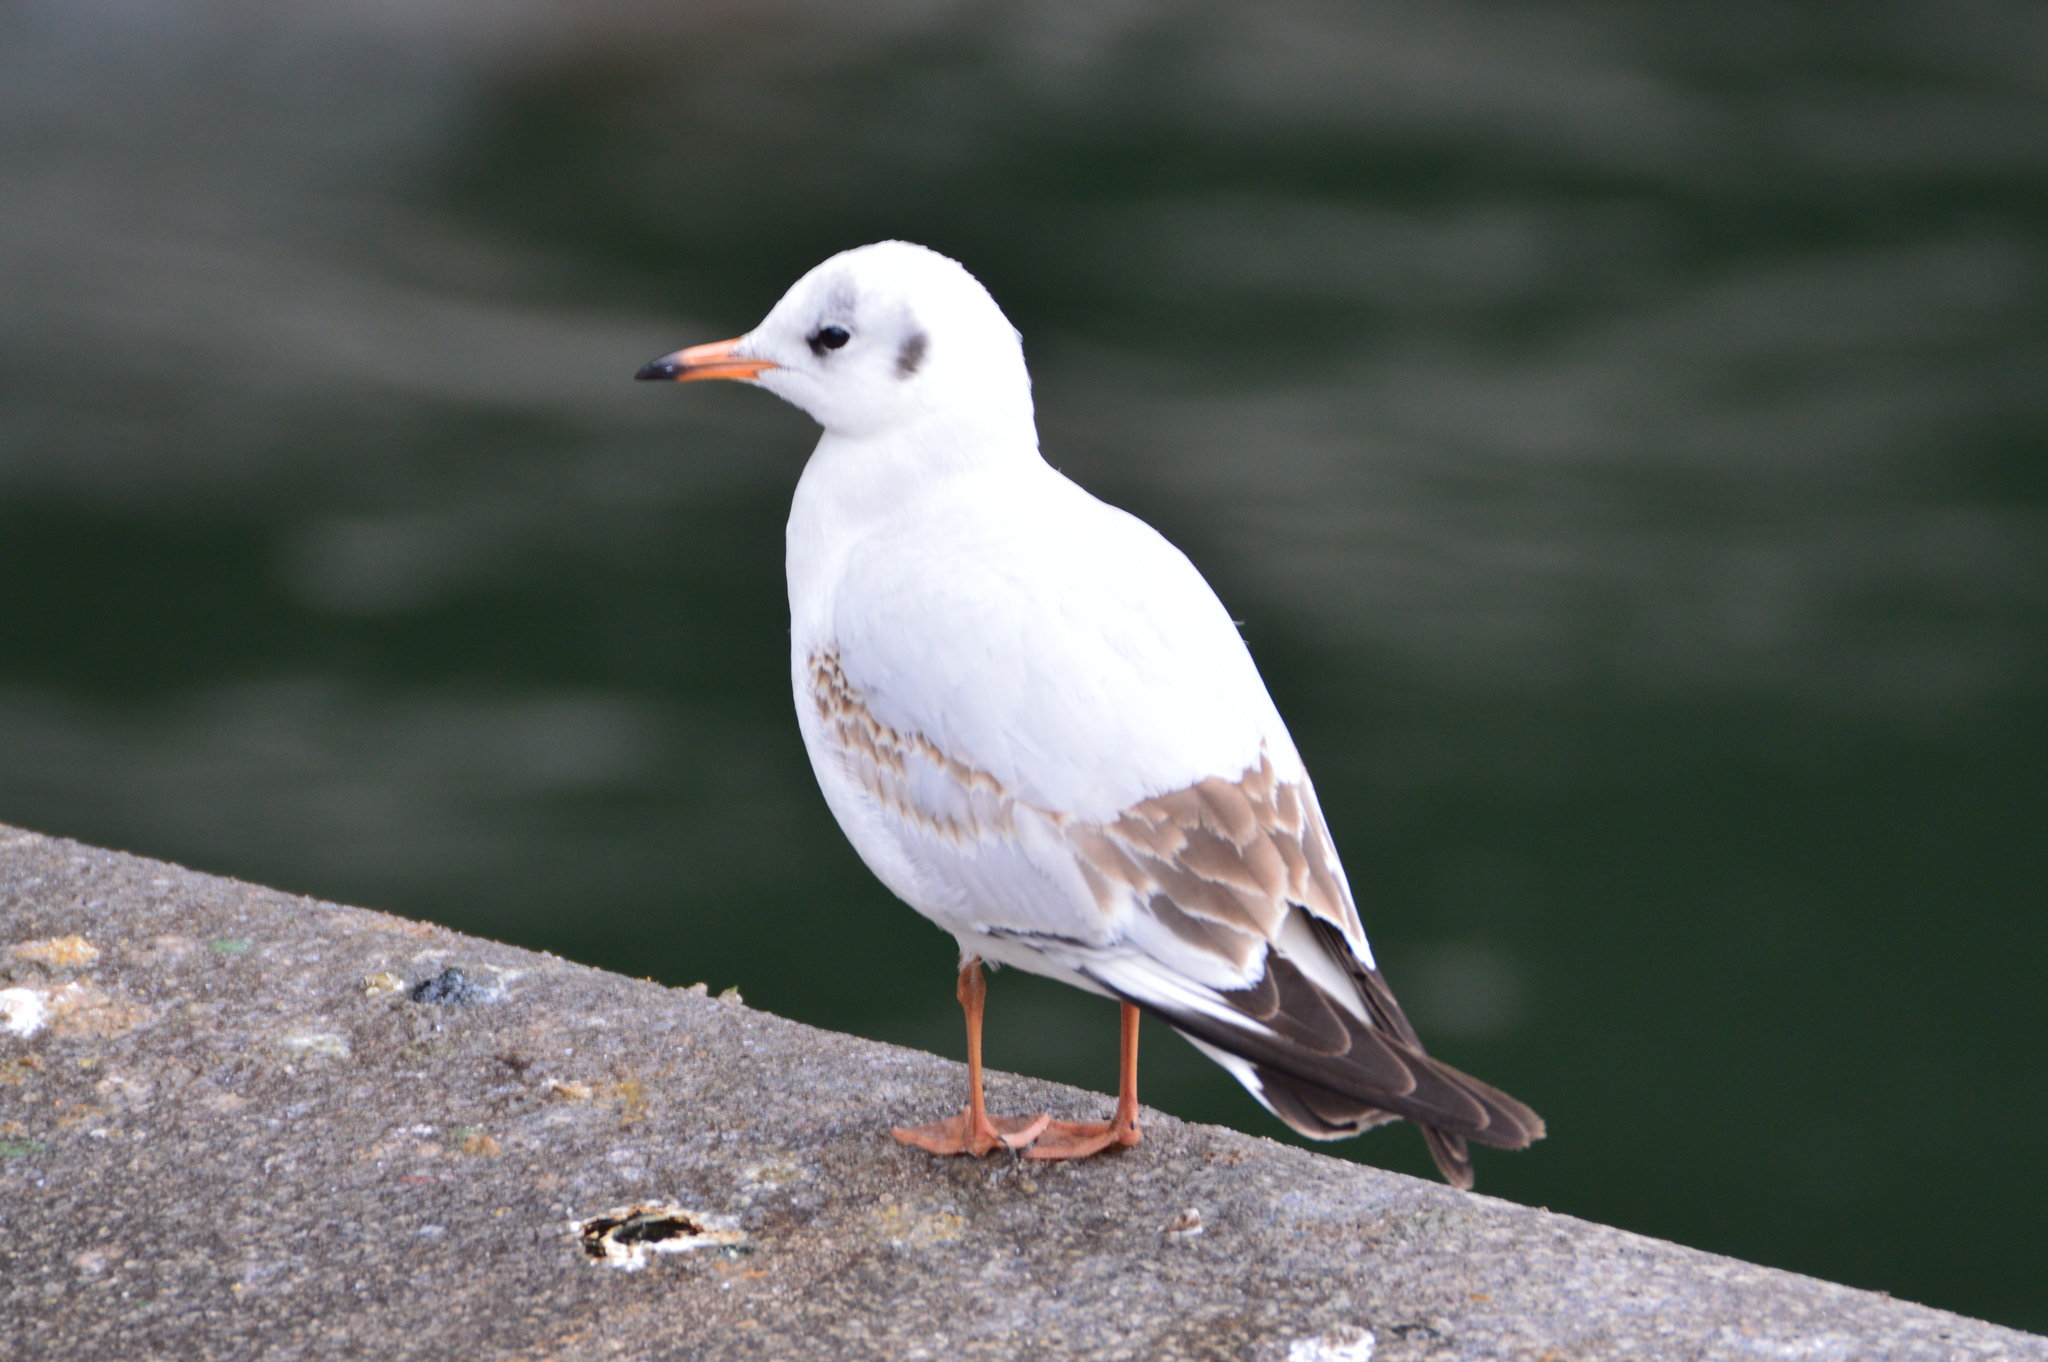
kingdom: Animalia
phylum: Chordata
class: Aves
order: Charadriiformes
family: Laridae
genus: Chroicocephalus
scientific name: Chroicocephalus ridibundus
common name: Black-headed gull
